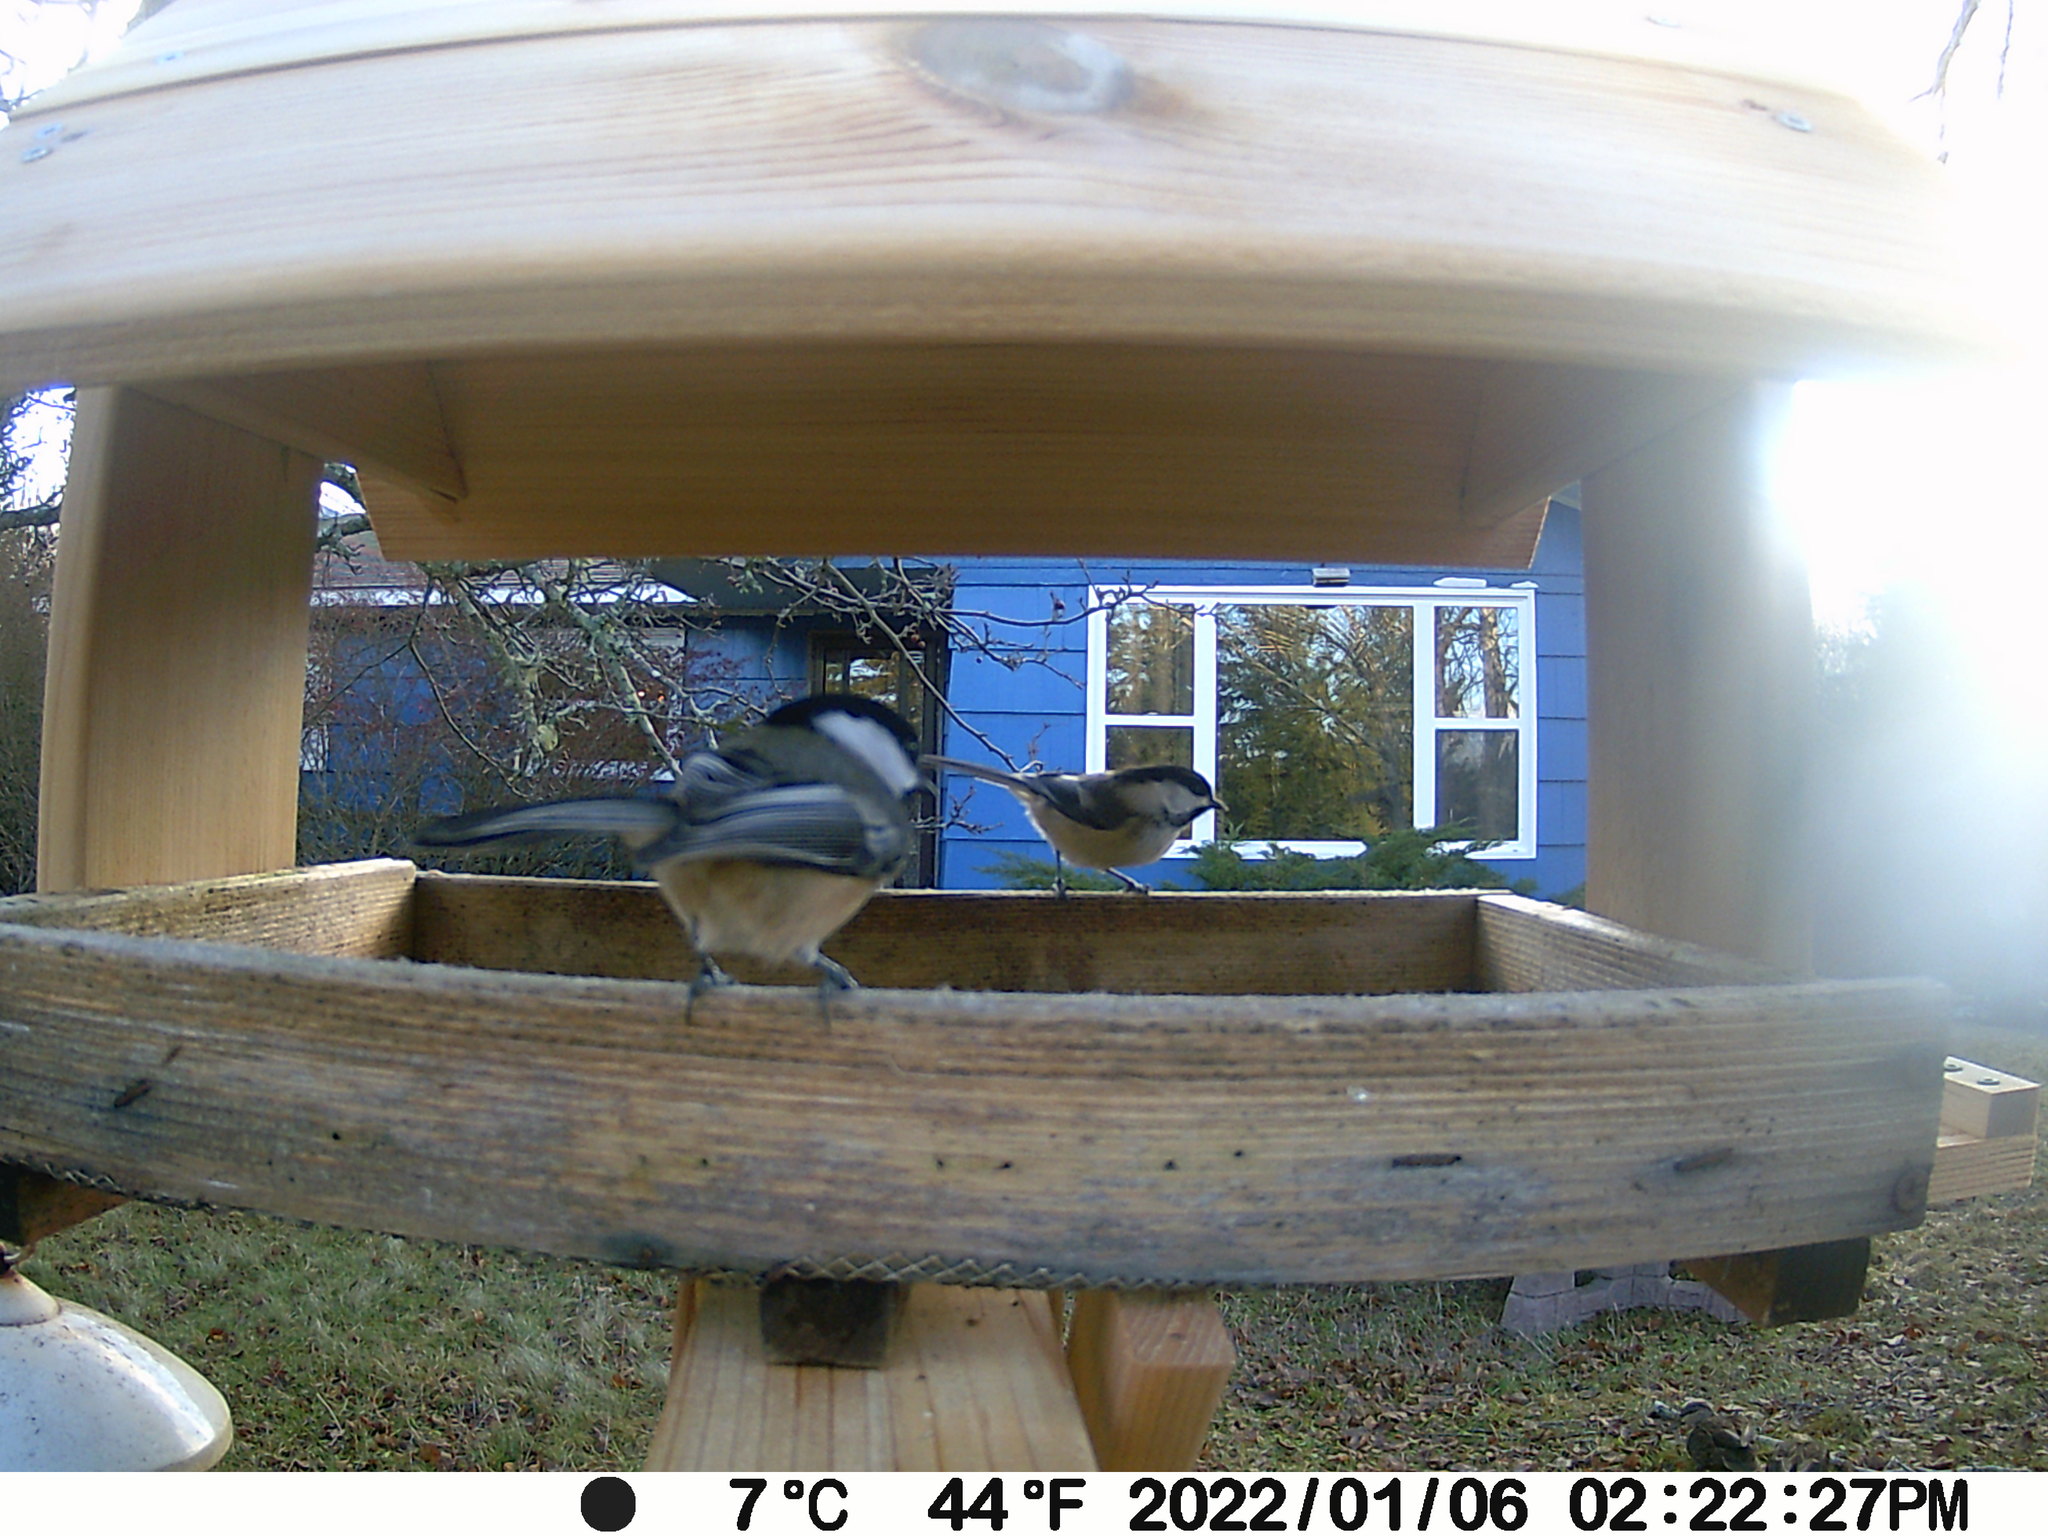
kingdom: Animalia
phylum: Chordata
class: Aves
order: Anseriformes
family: Anatidae
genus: Anas
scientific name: Anas rubripes
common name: American black duck
